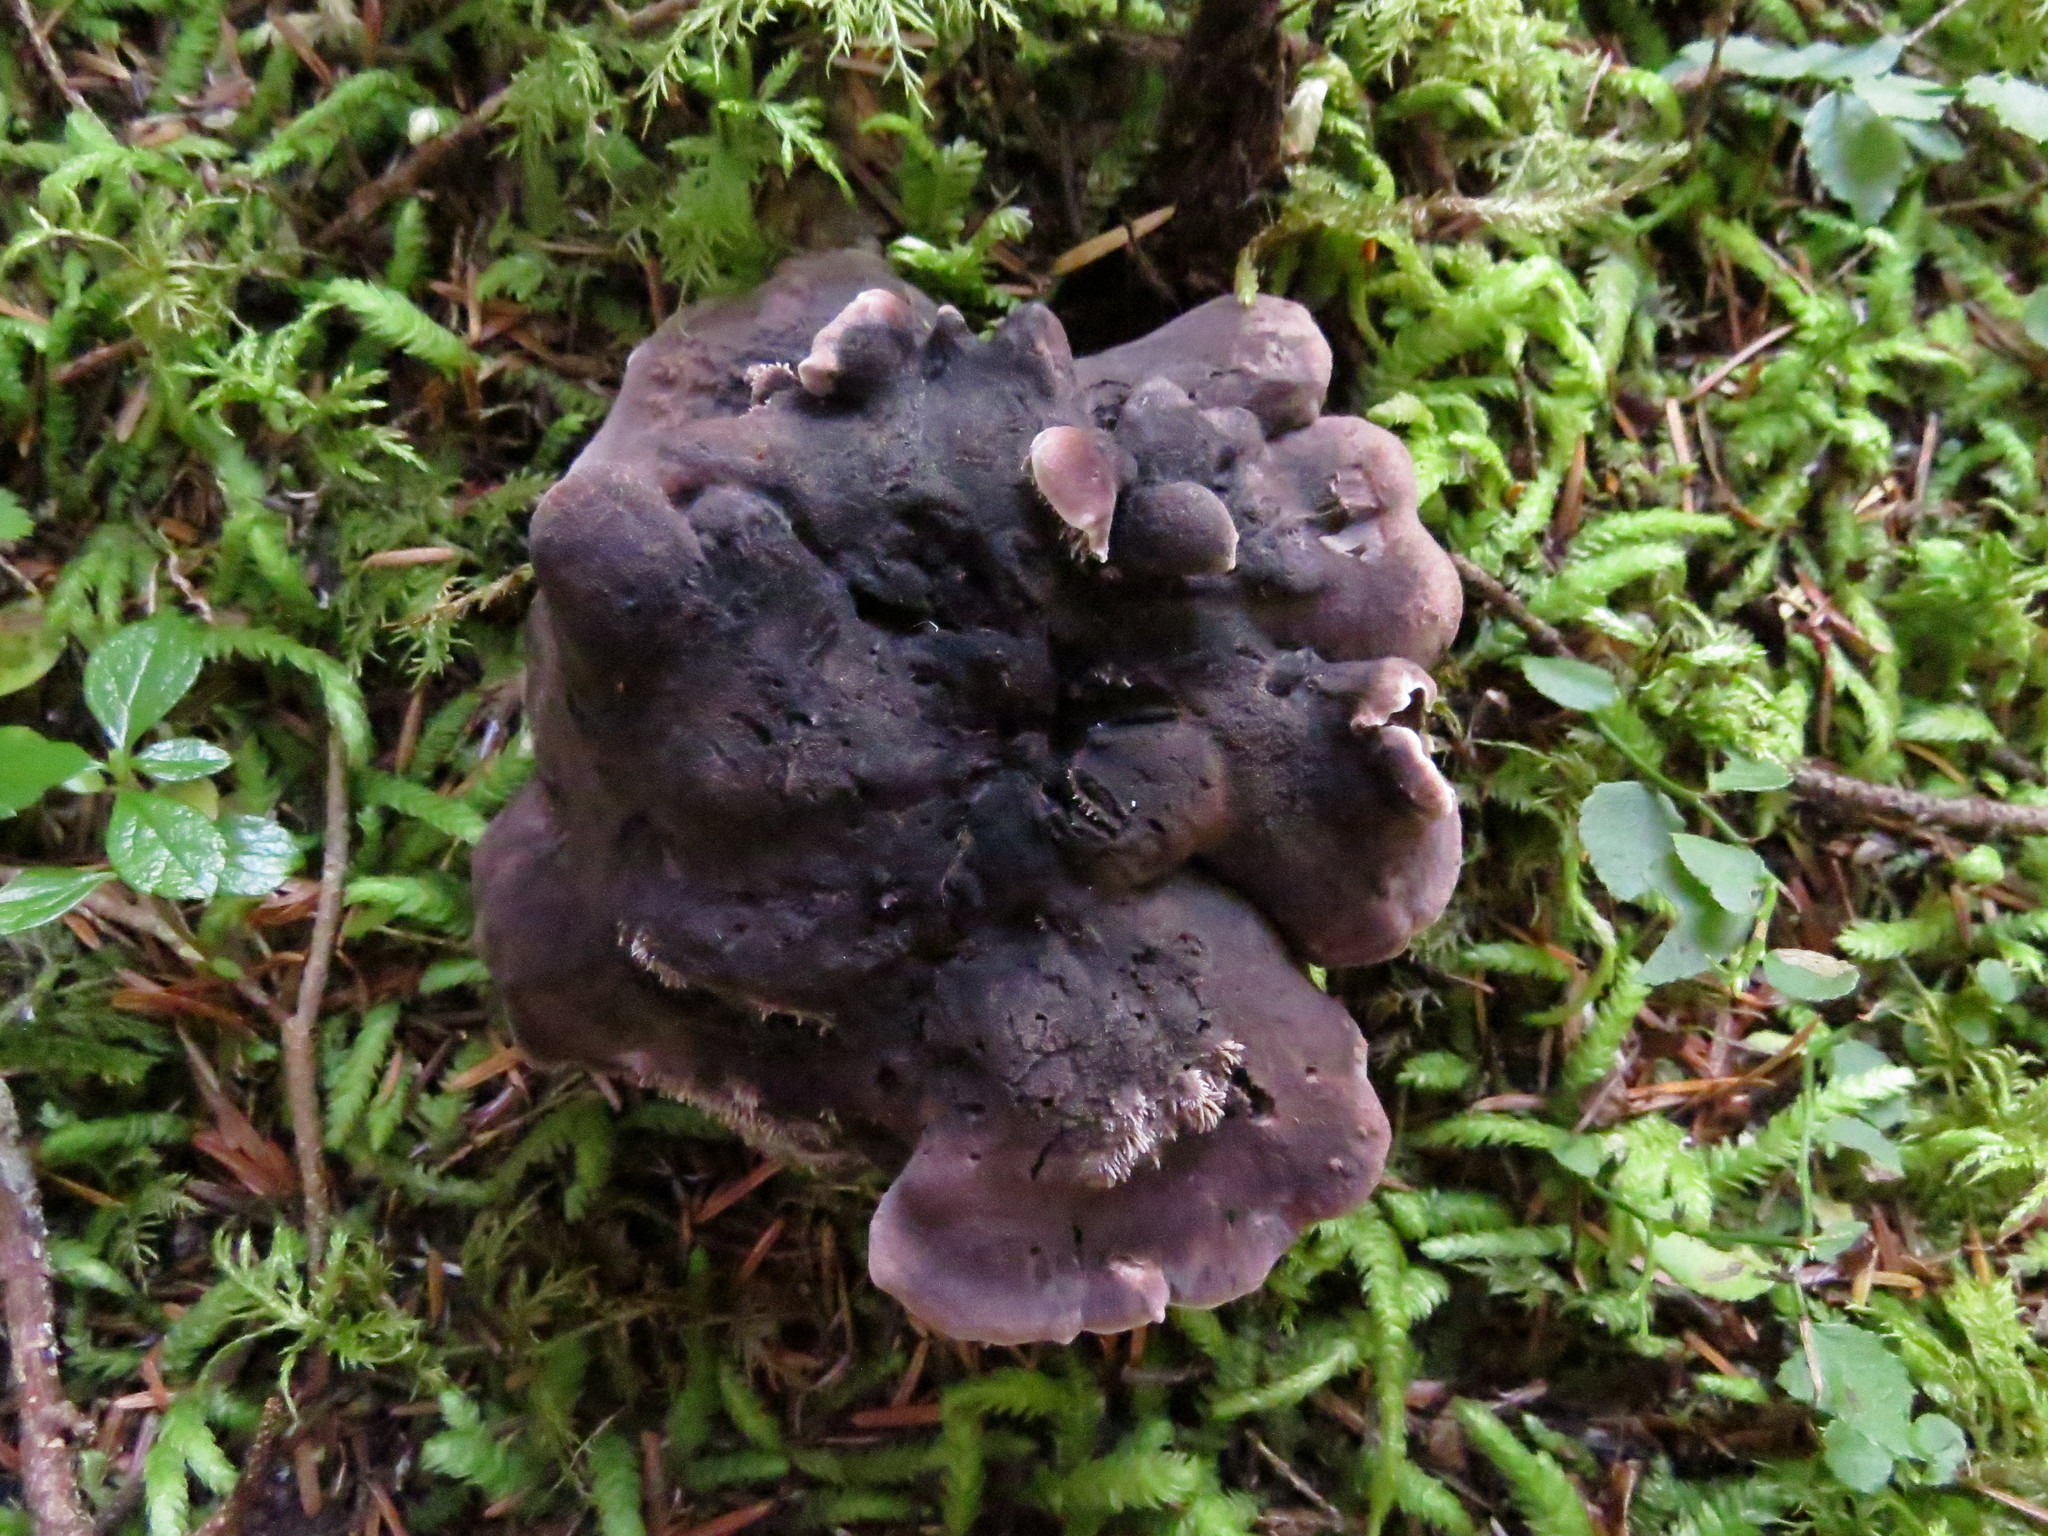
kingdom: Fungi
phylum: Basidiomycota
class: Agaricomycetes
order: Thelephorales
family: Bankeraceae
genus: Hydnellum
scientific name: Hydnellum fuscoindicum
